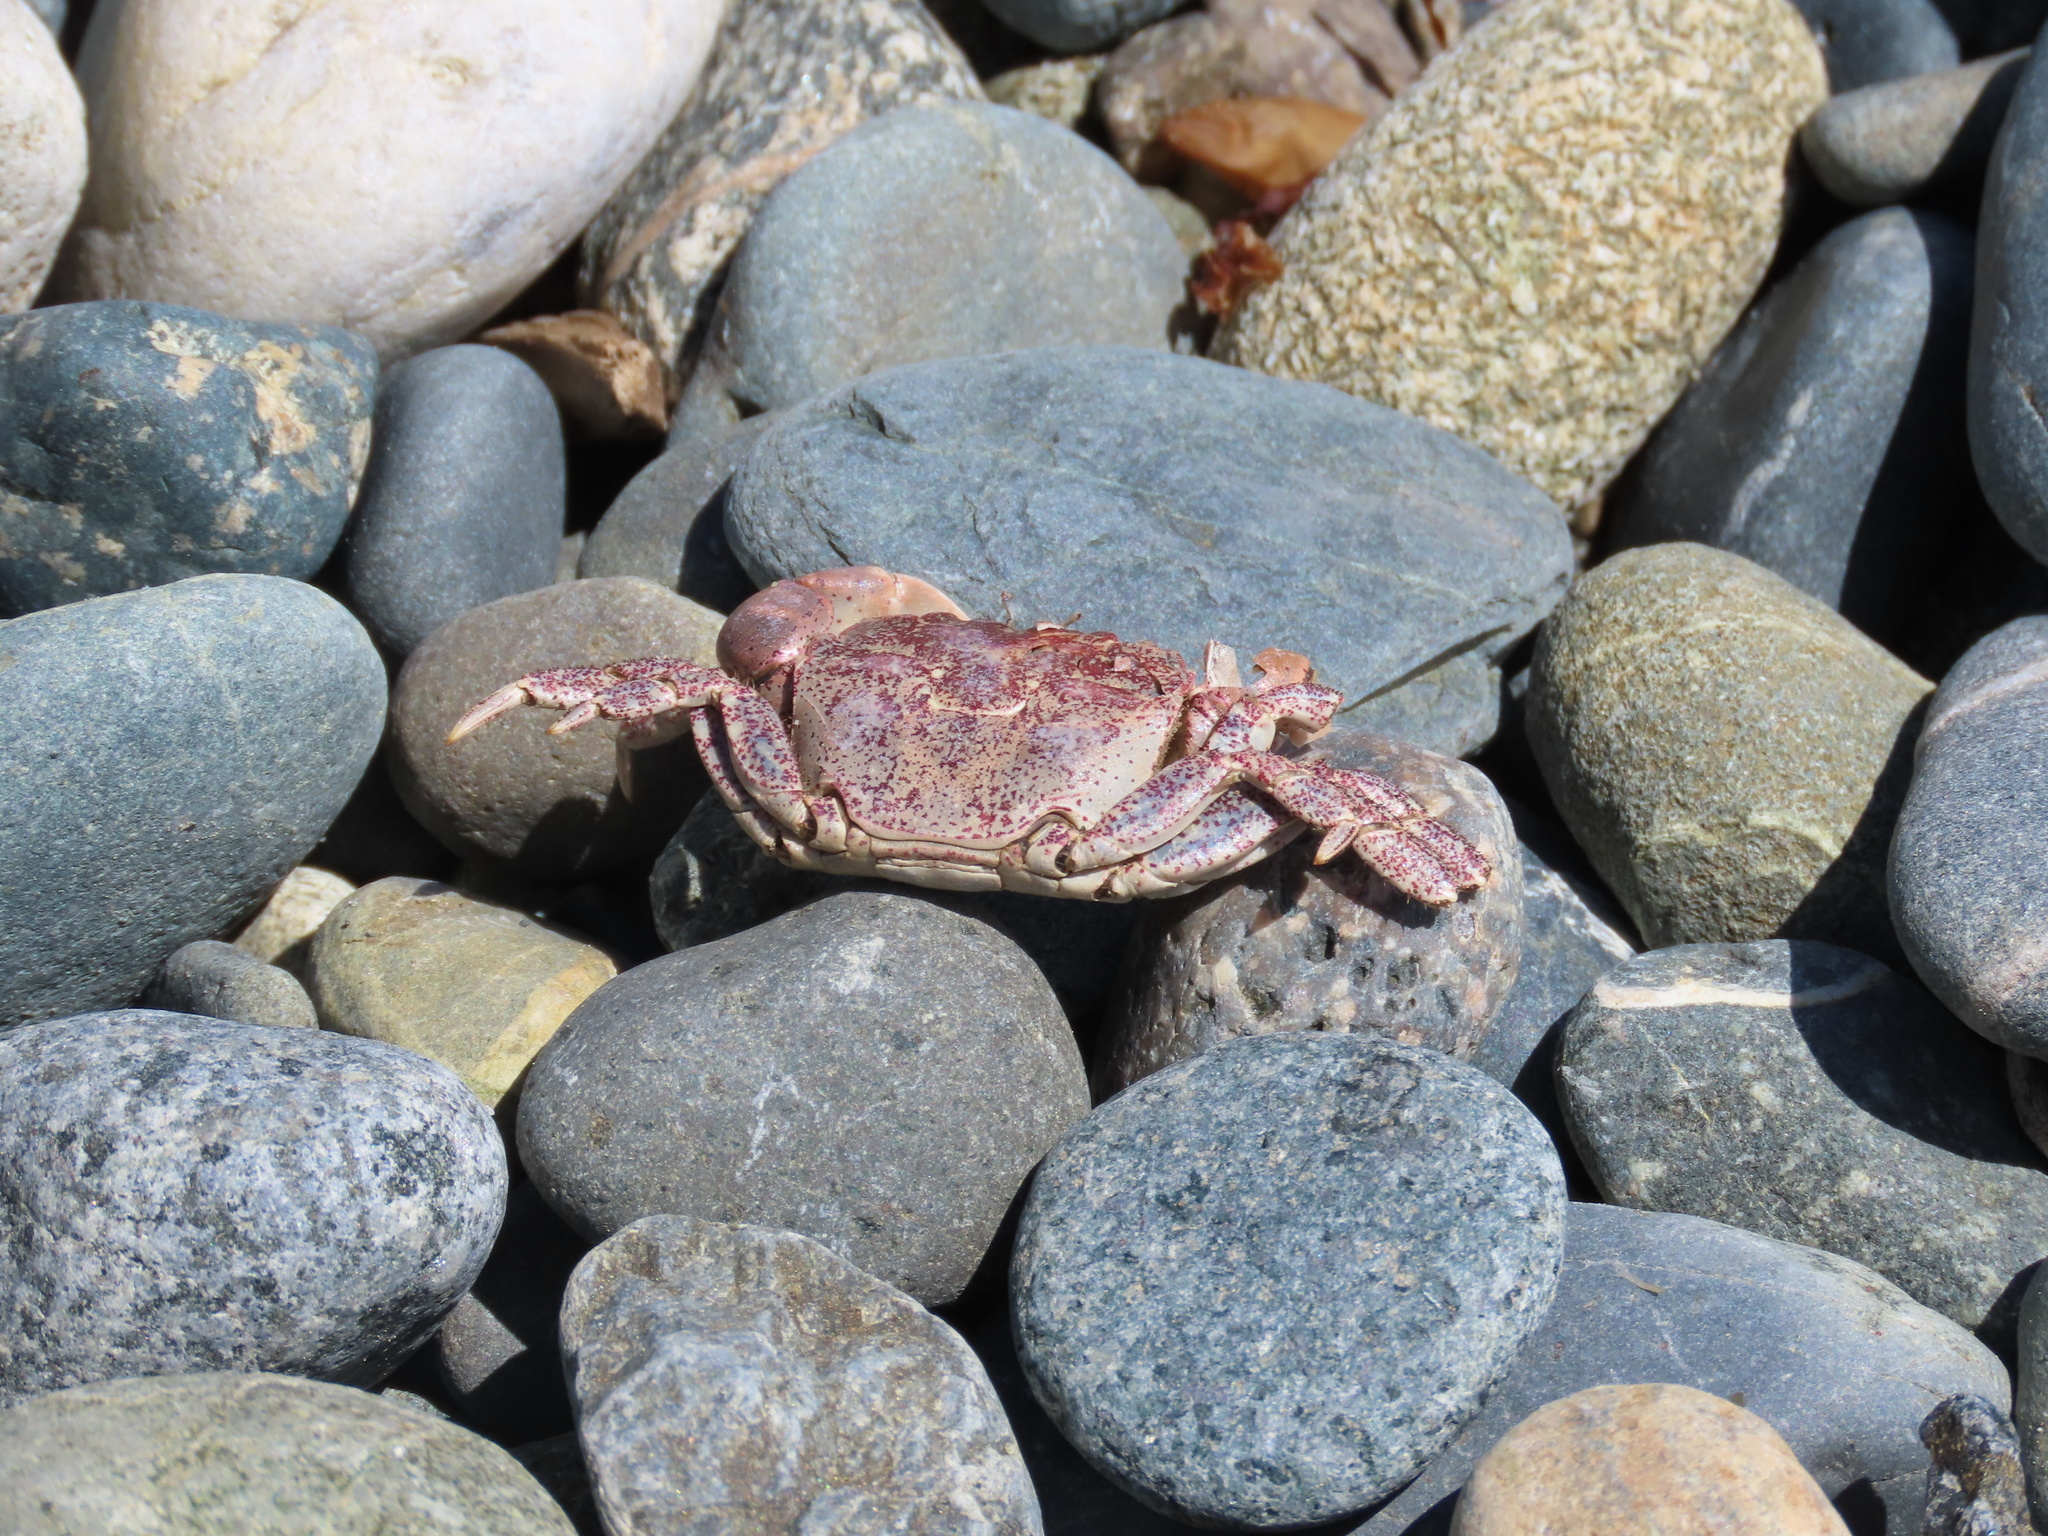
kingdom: Animalia
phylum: Arthropoda
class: Malacostraca
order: Decapoda
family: Varunidae
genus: Hemigrapsus
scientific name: Hemigrapsus oregonensis
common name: Yellow shore crab
